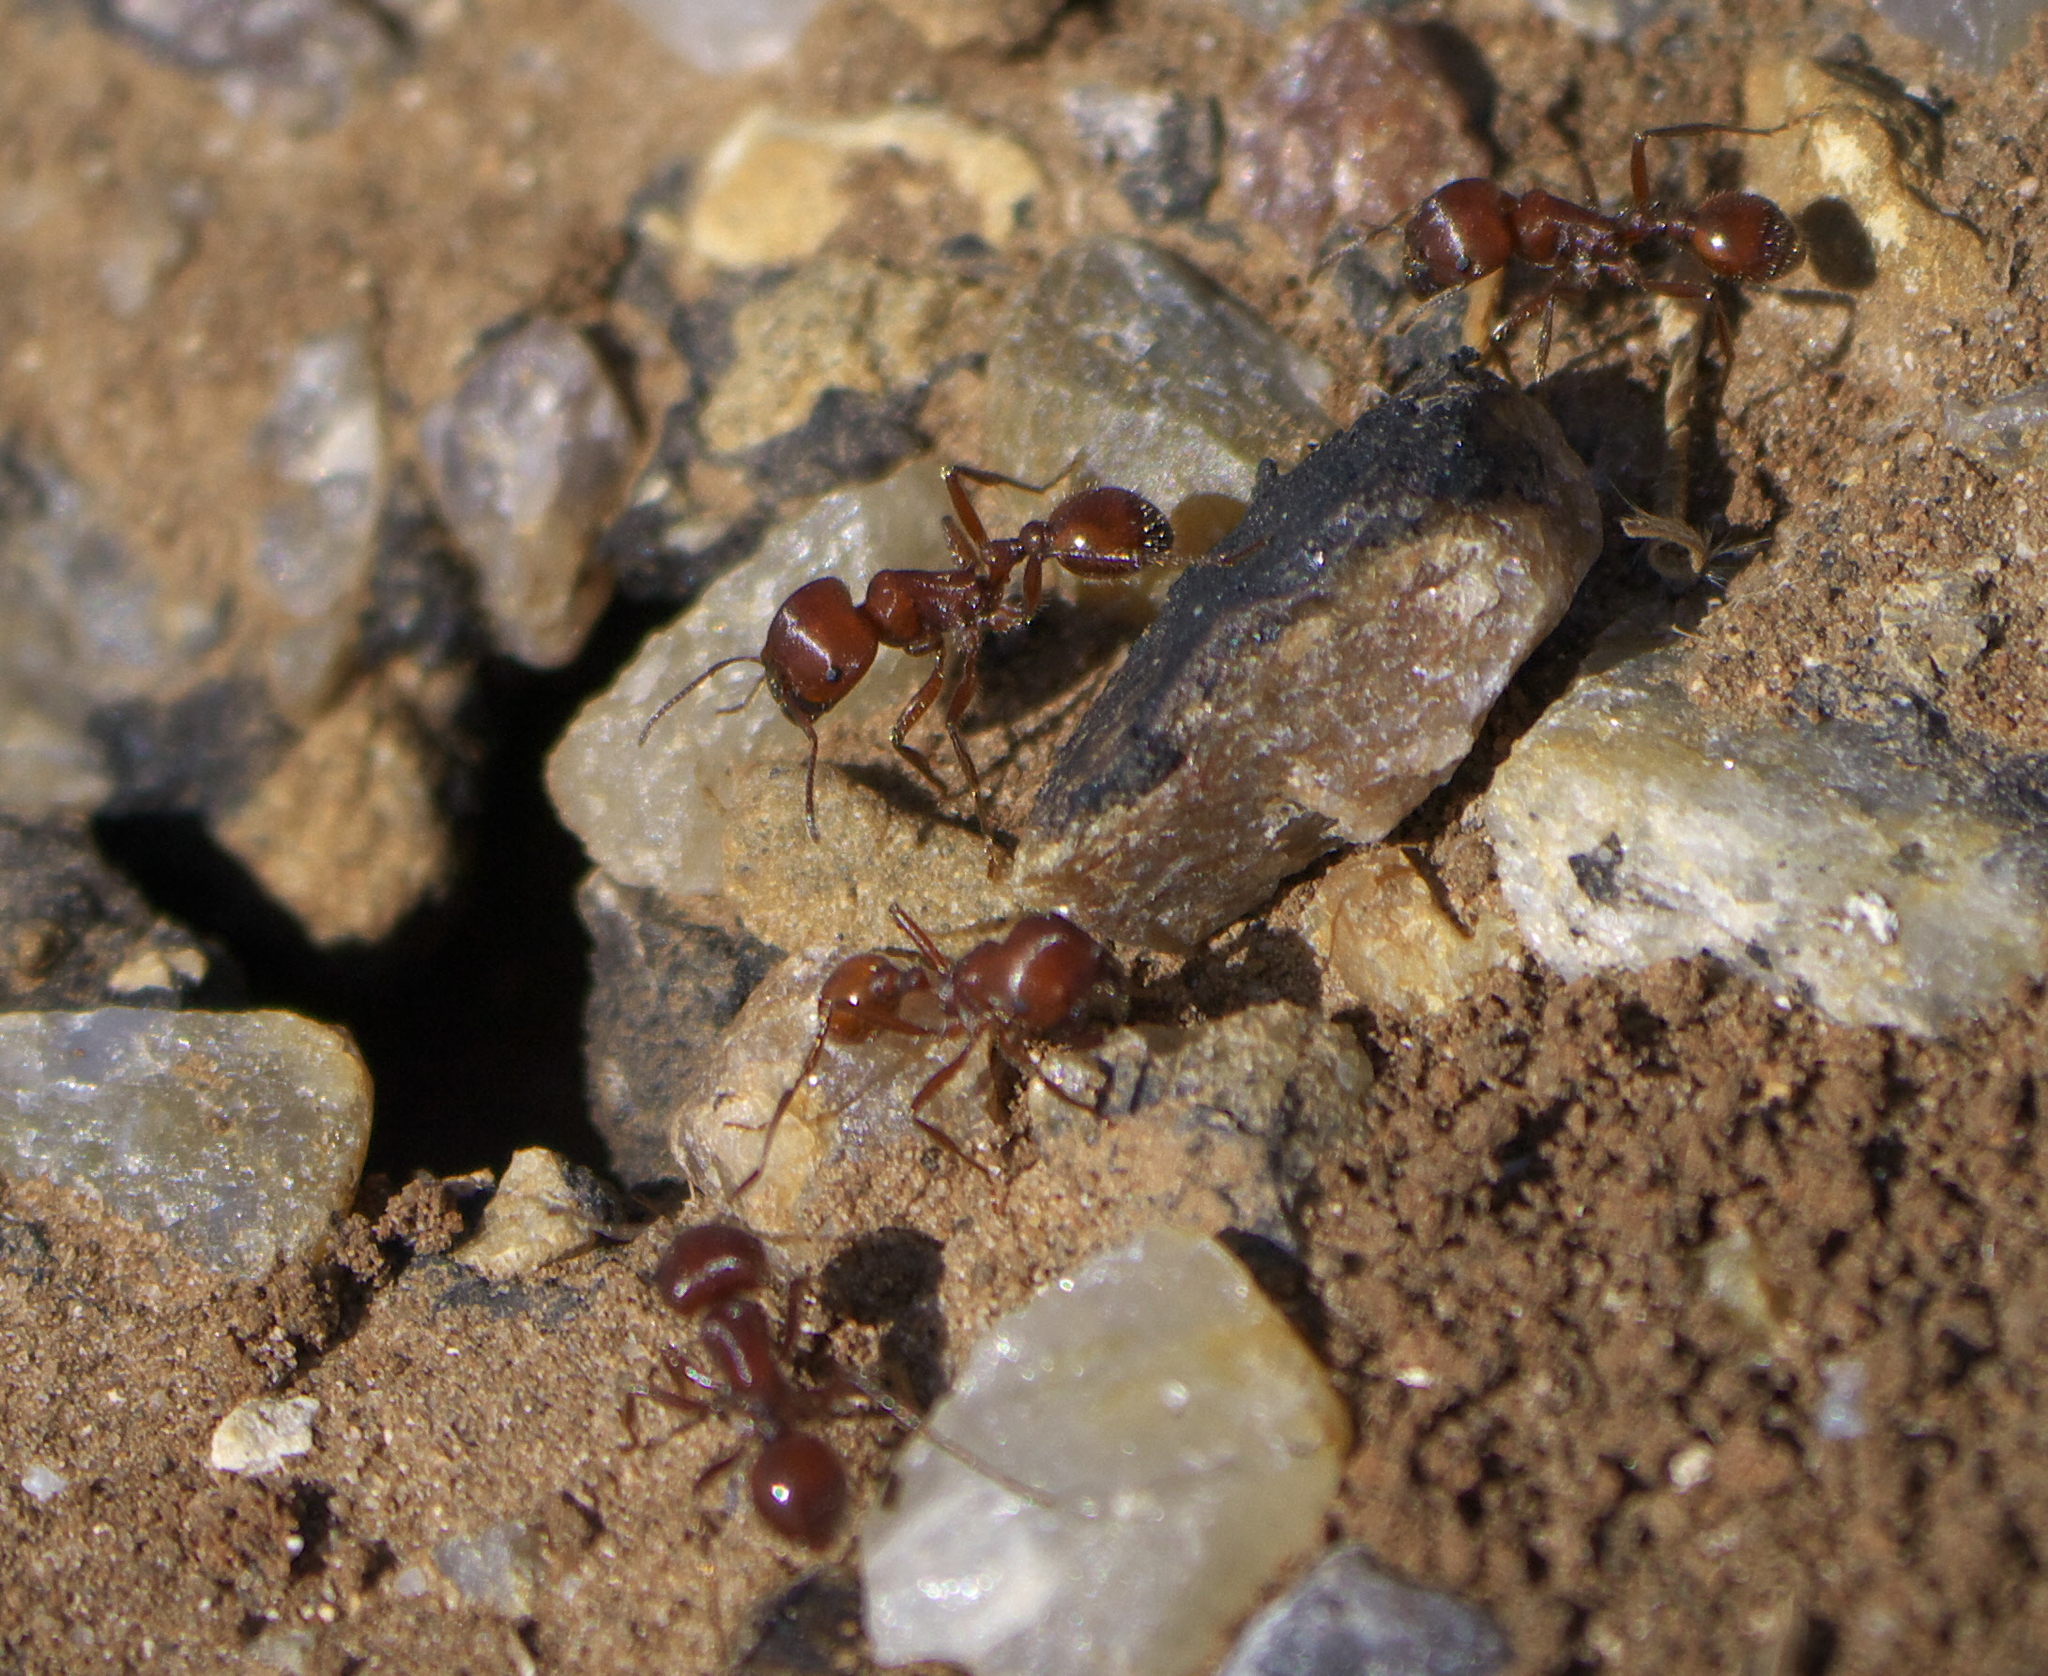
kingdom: Animalia
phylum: Arthropoda
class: Insecta
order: Hymenoptera
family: Formicidae
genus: Pogonomyrmex
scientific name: Pogonomyrmex barbatus
